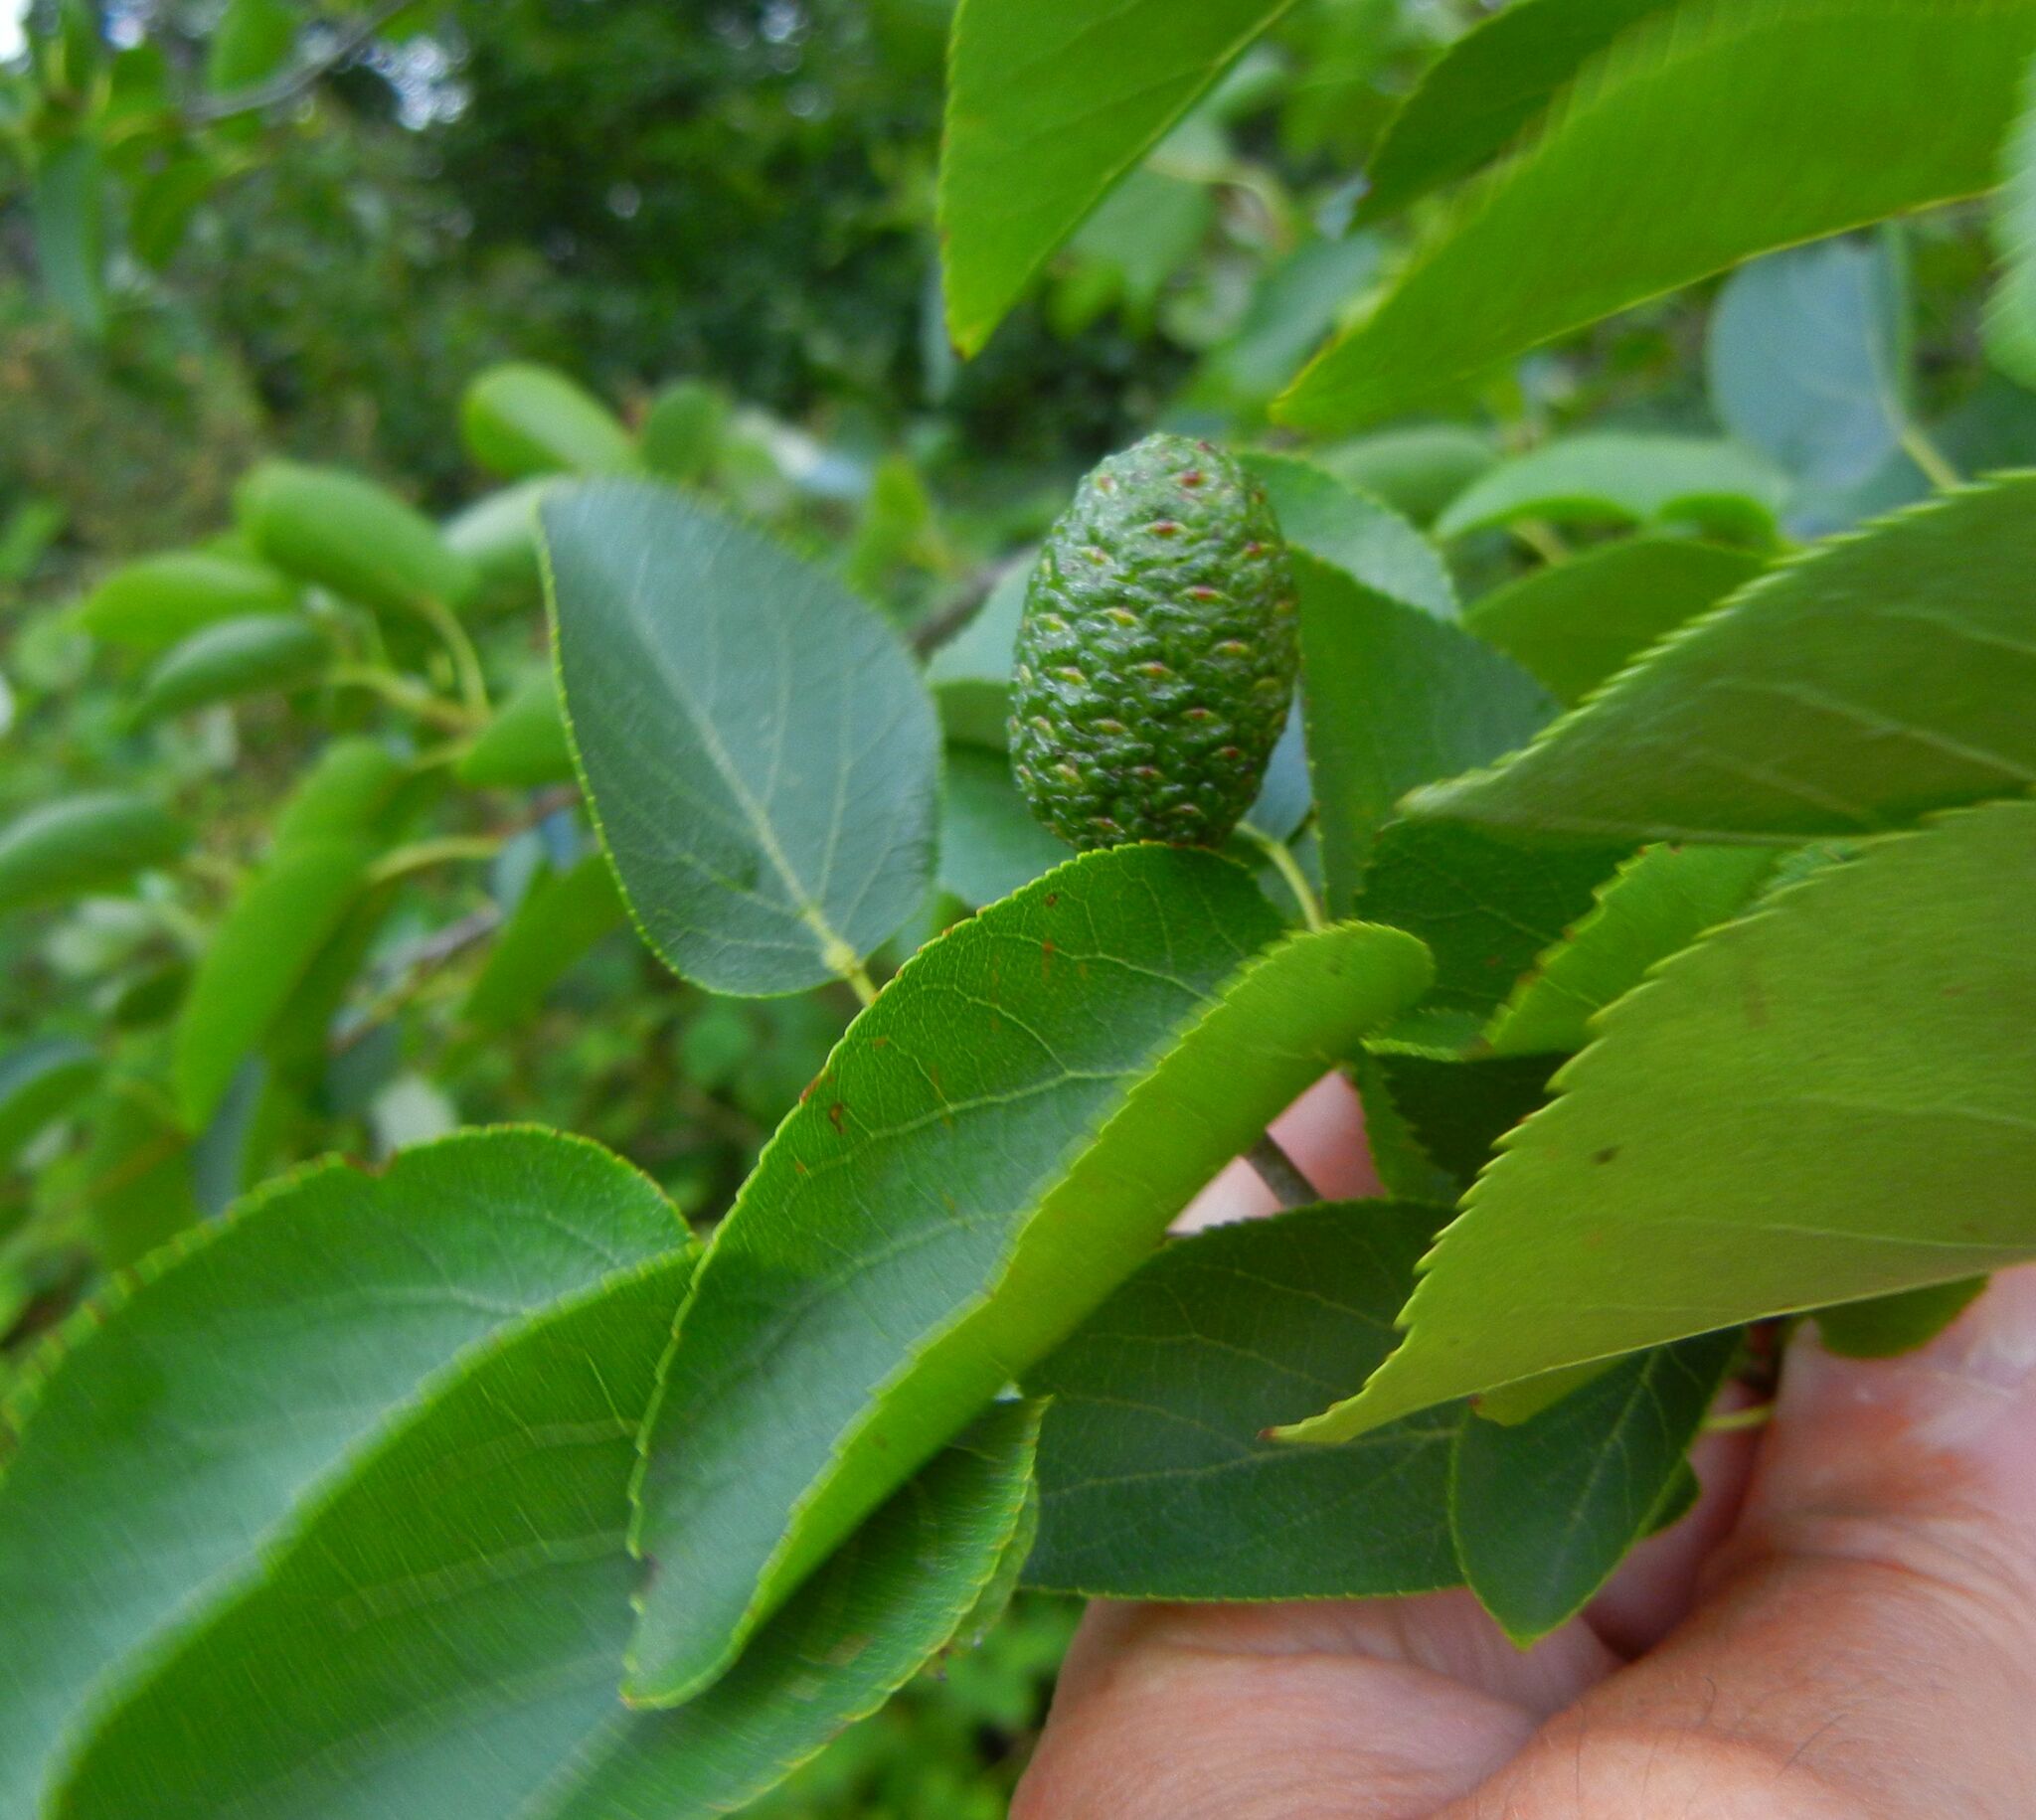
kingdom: Plantae
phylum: Tracheophyta
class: Magnoliopsida
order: Fagales
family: Betulaceae
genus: Alnus
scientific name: Alnus cordata
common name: Italian alder
